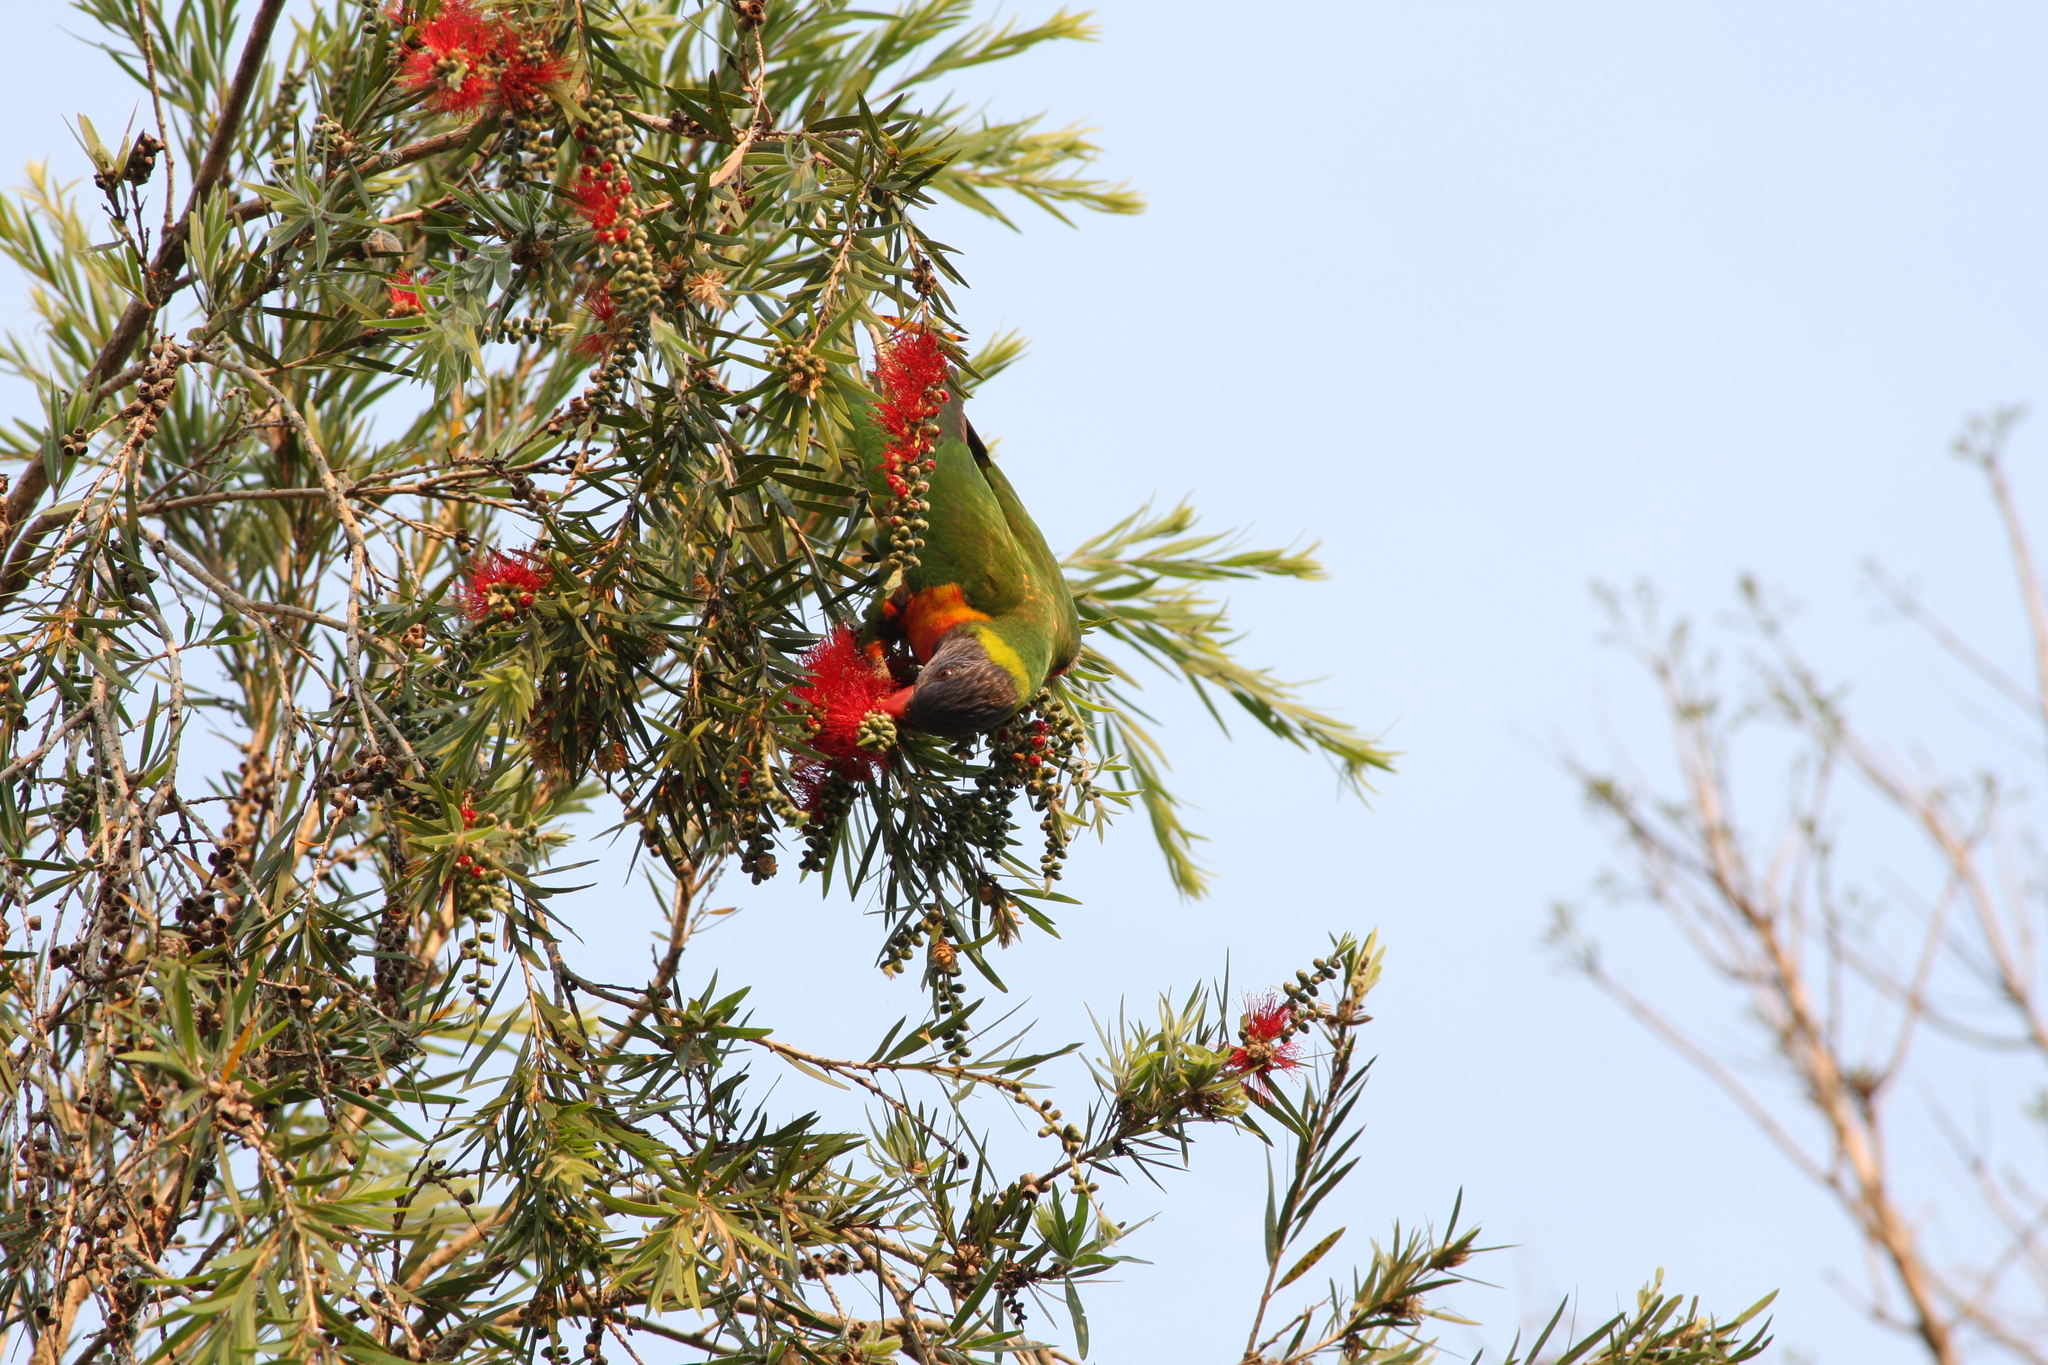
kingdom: Animalia
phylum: Chordata
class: Aves
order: Psittaciformes
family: Psittacidae
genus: Trichoglossus
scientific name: Trichoglossus haematodus
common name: Coconut lorikeet
